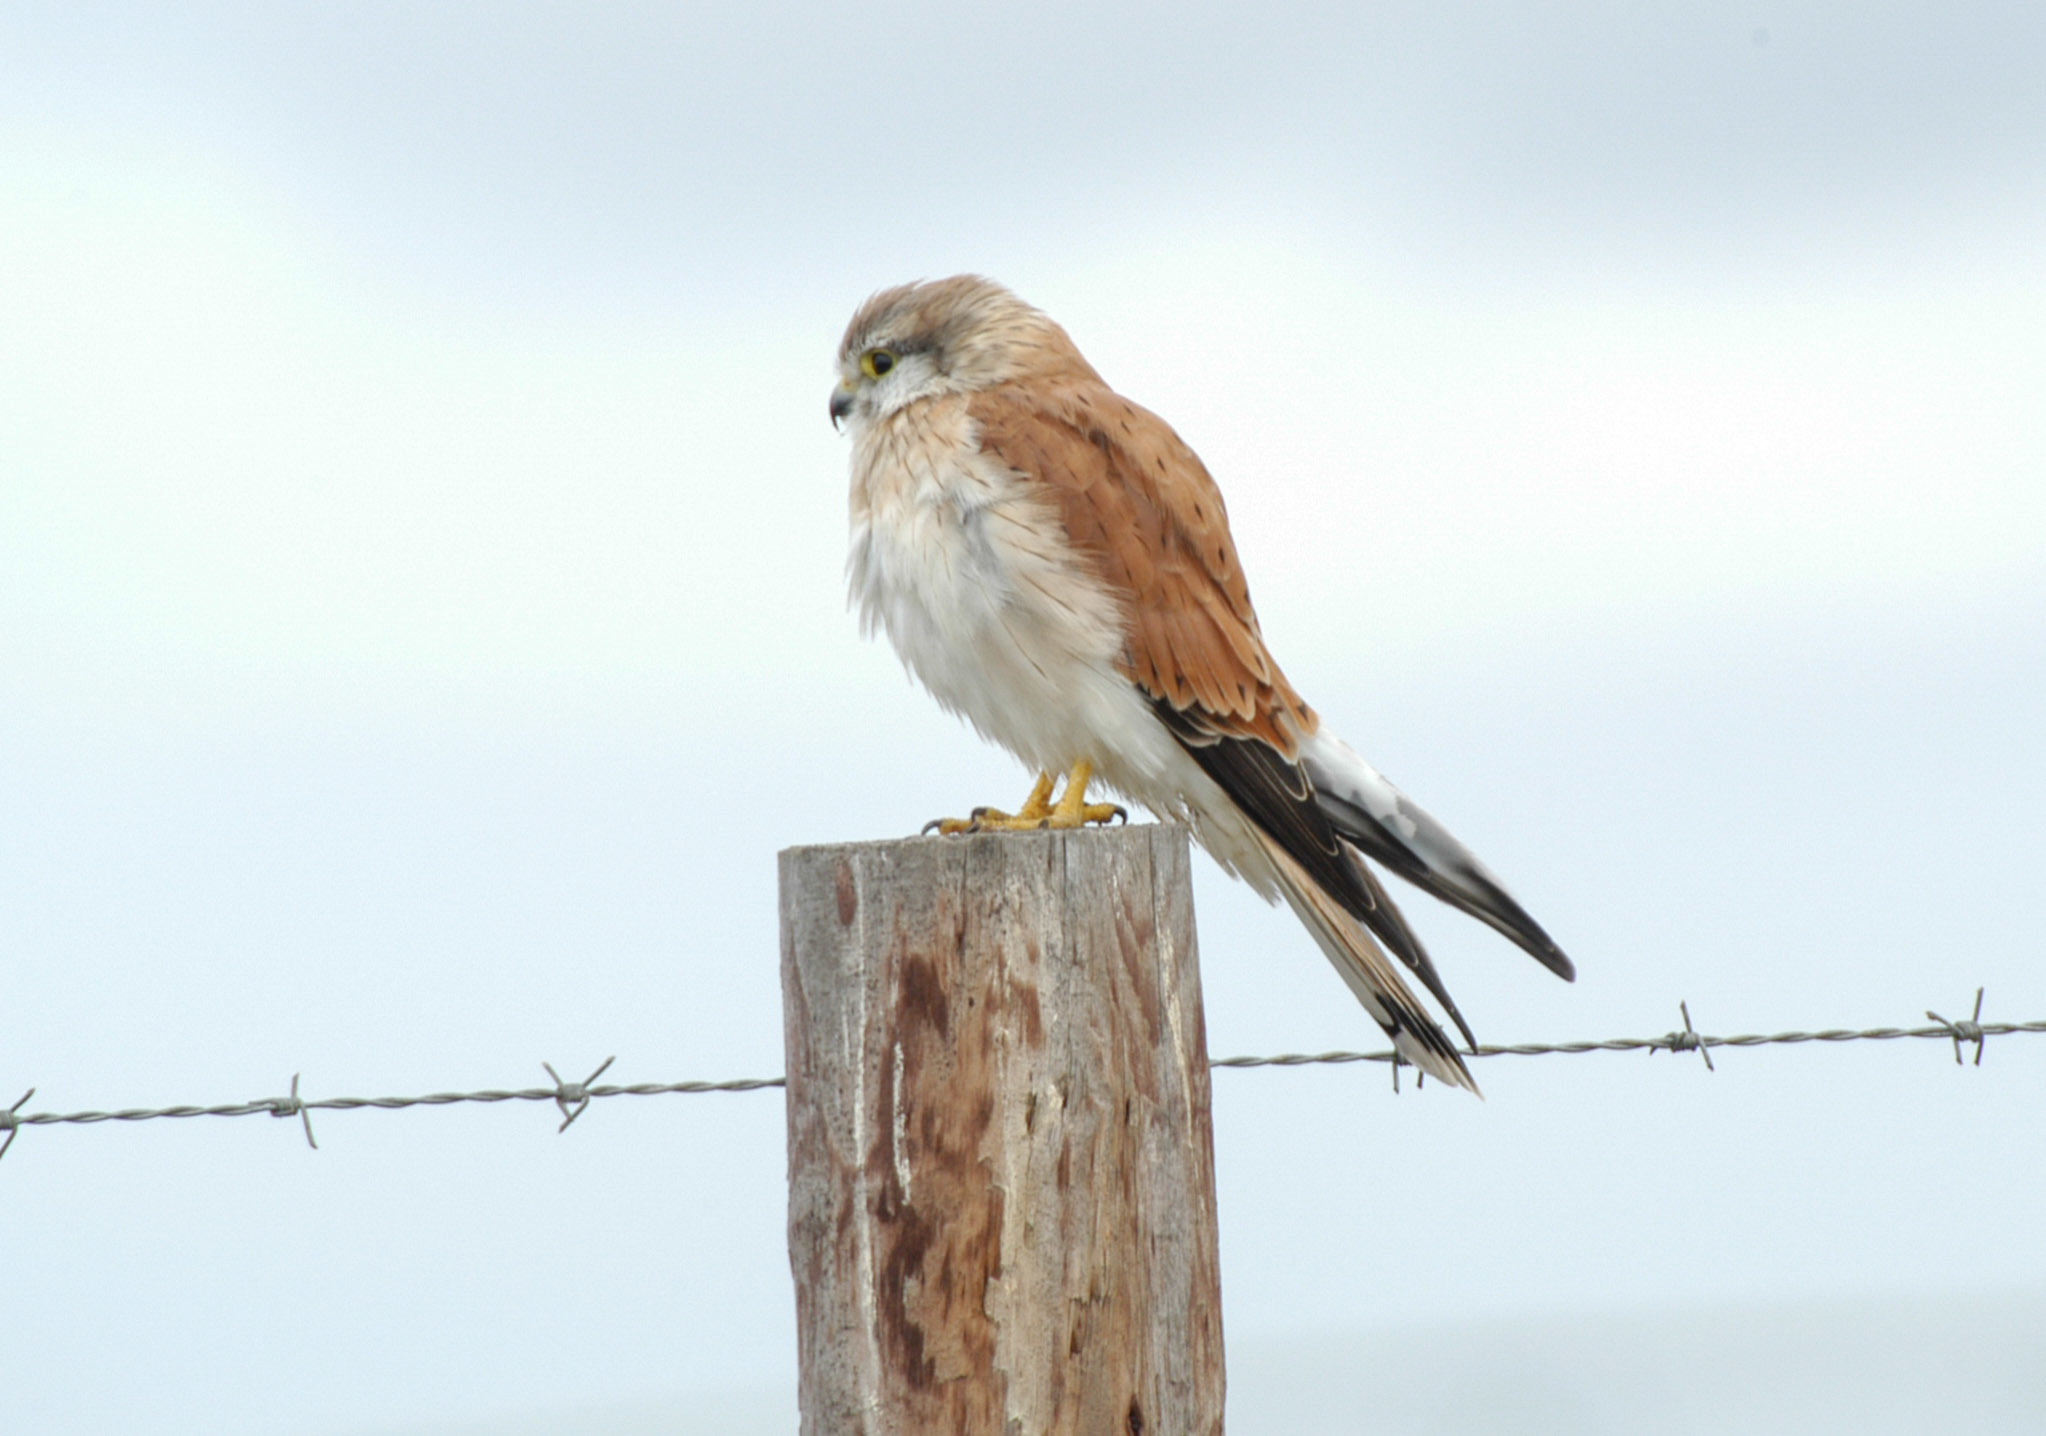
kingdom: Animalia
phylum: Chordata
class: Aves
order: Falconiformes
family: Falconidae
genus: Falco
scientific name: Falco cenchroides
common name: Nankeen kestrel
